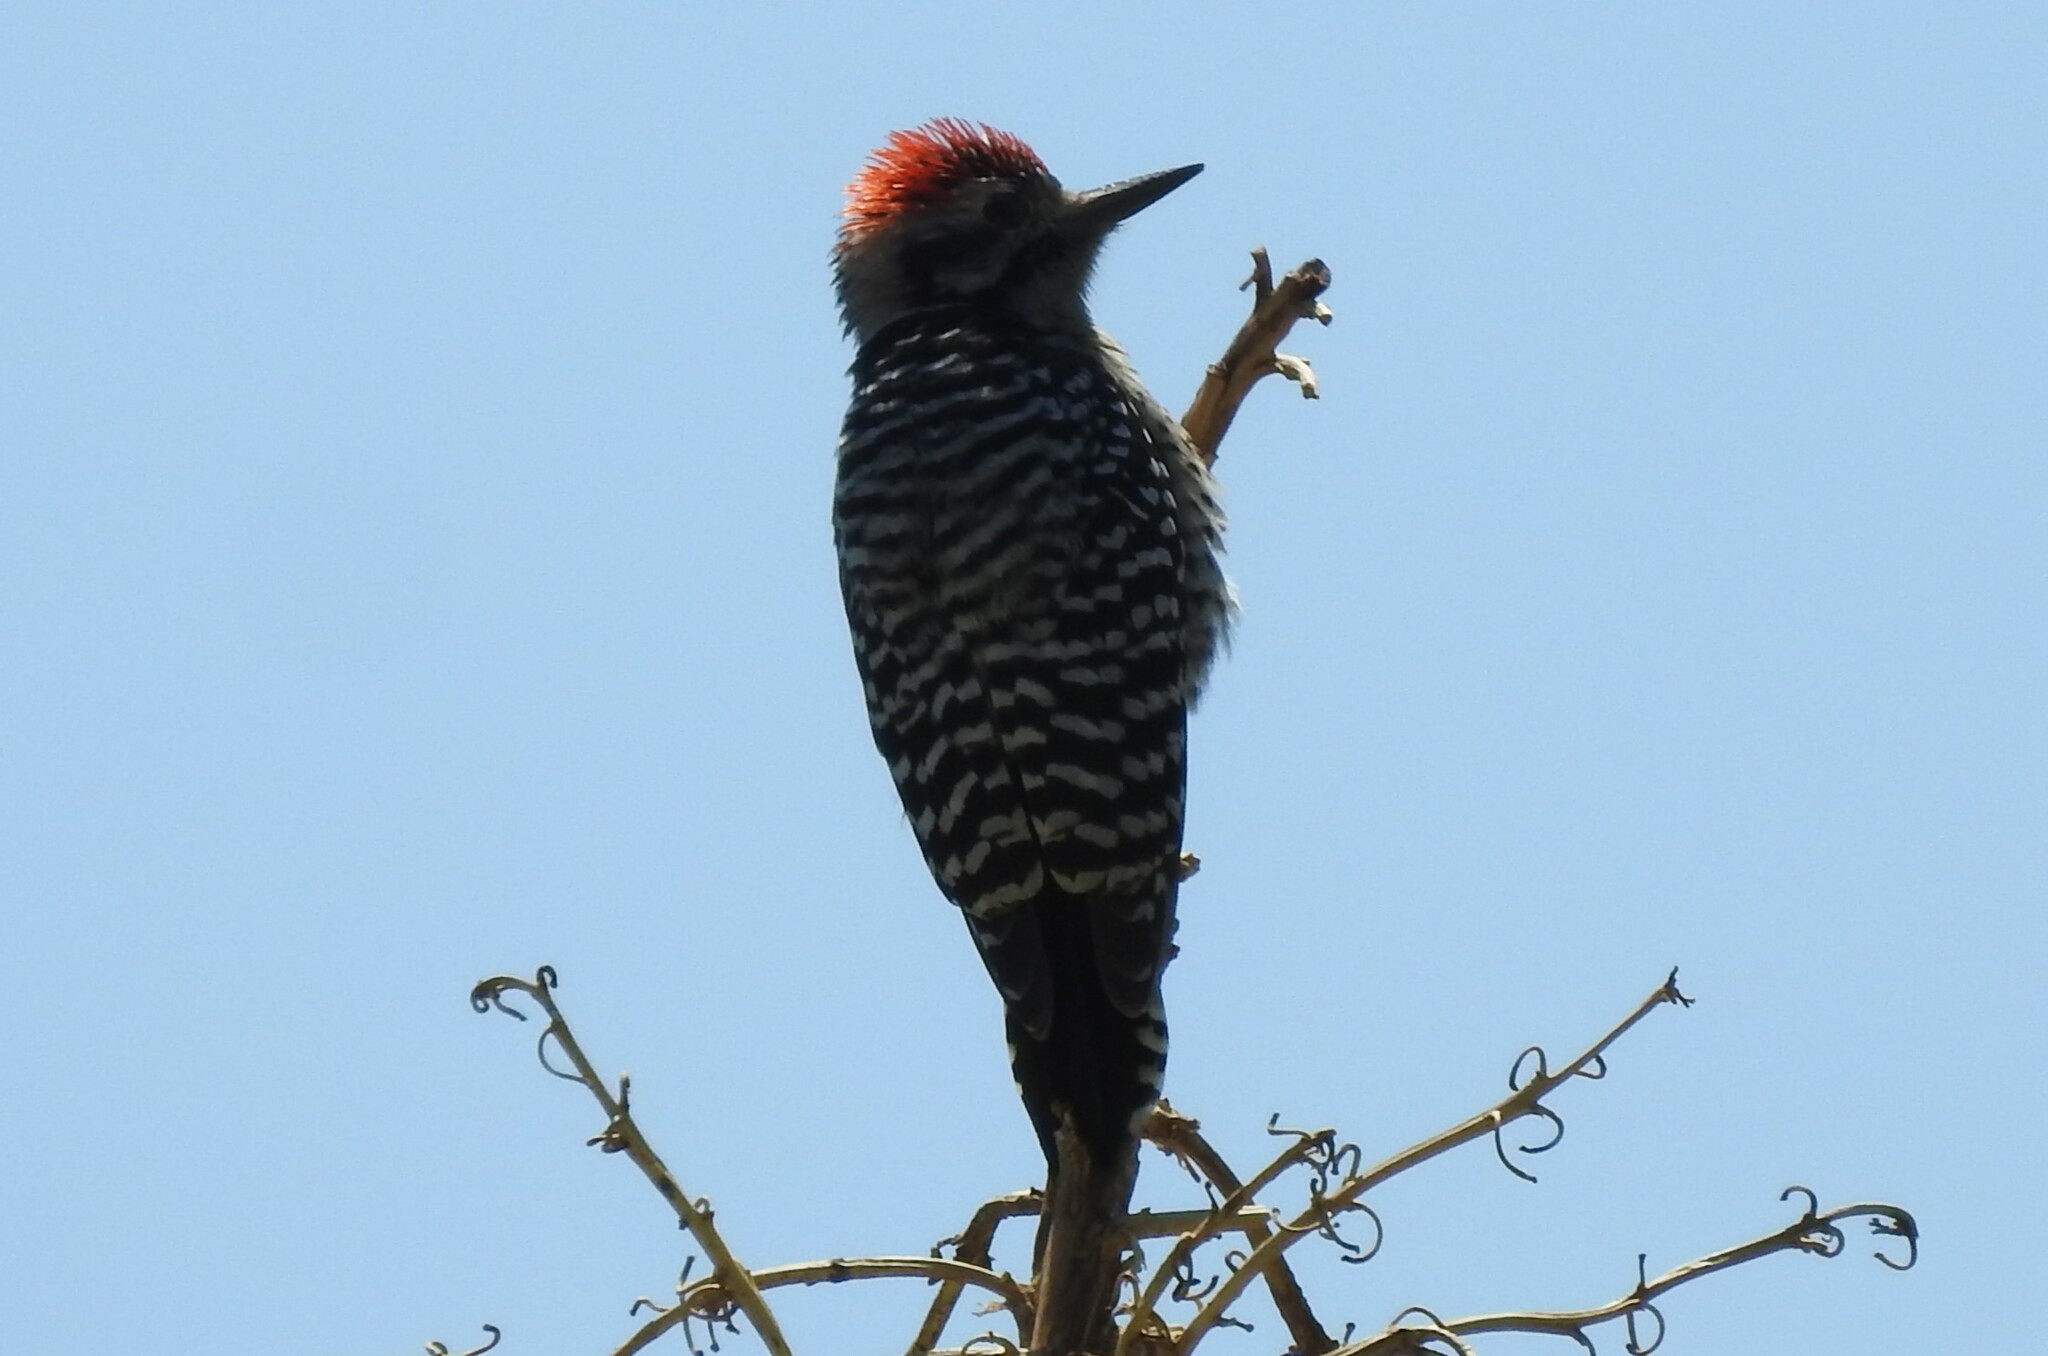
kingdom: Animalia
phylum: Chordata
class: Aves
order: Piciformes
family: Picidae
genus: Dryobates
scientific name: Dryobates scalaris
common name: Ladder-backed woodpecker
